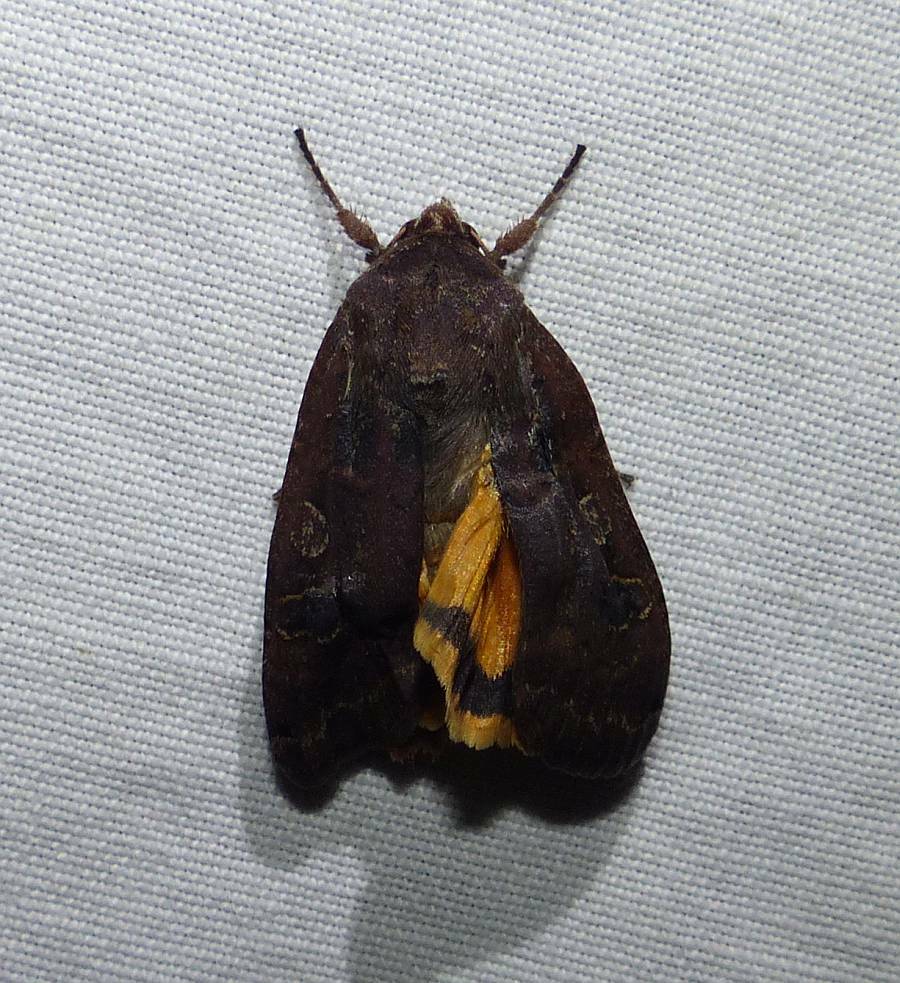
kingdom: Animalia
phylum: Arthropoda
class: Insecta
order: Lepidoptera
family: Noctuidae
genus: Noctua
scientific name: Noctua pronuba
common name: Large yellow underwing
